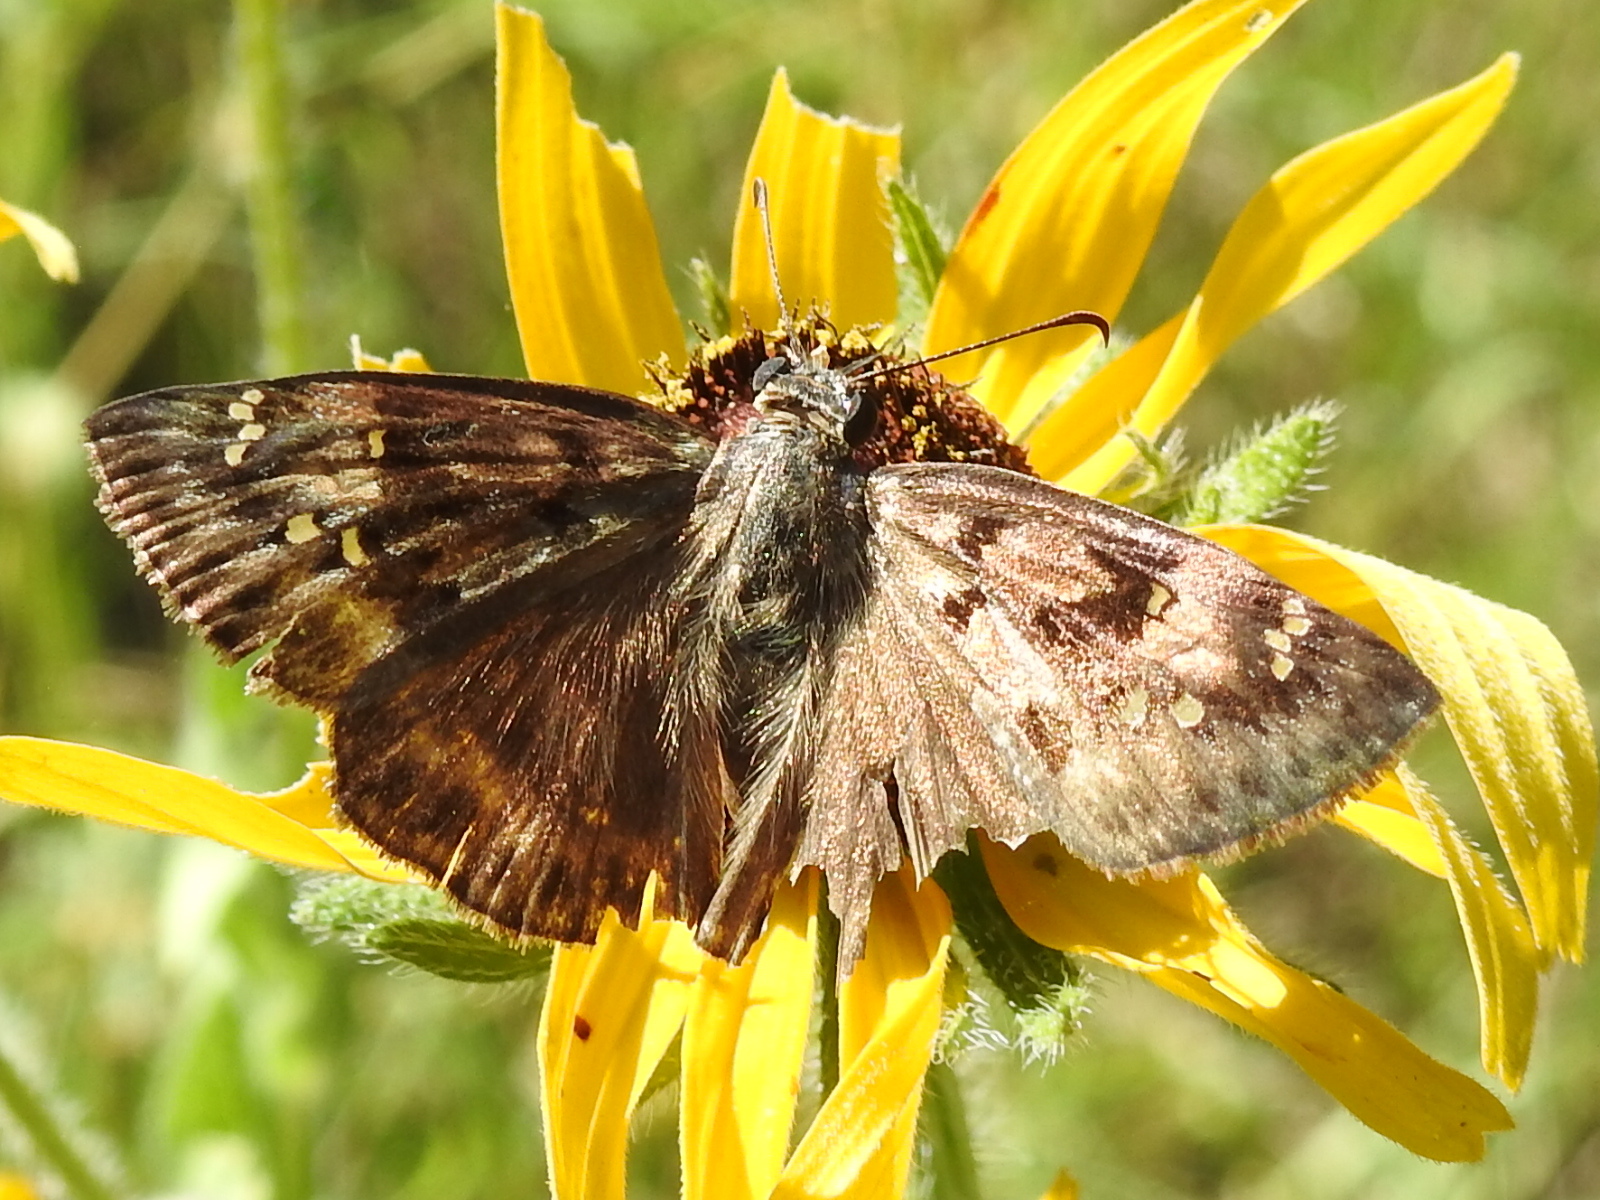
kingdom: Animalia
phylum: Arthropoda
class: Insecta
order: Lepidoptera
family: Hesperiidae
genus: Erynnis
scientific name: Erynnis horatius
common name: Horace's duskywing
